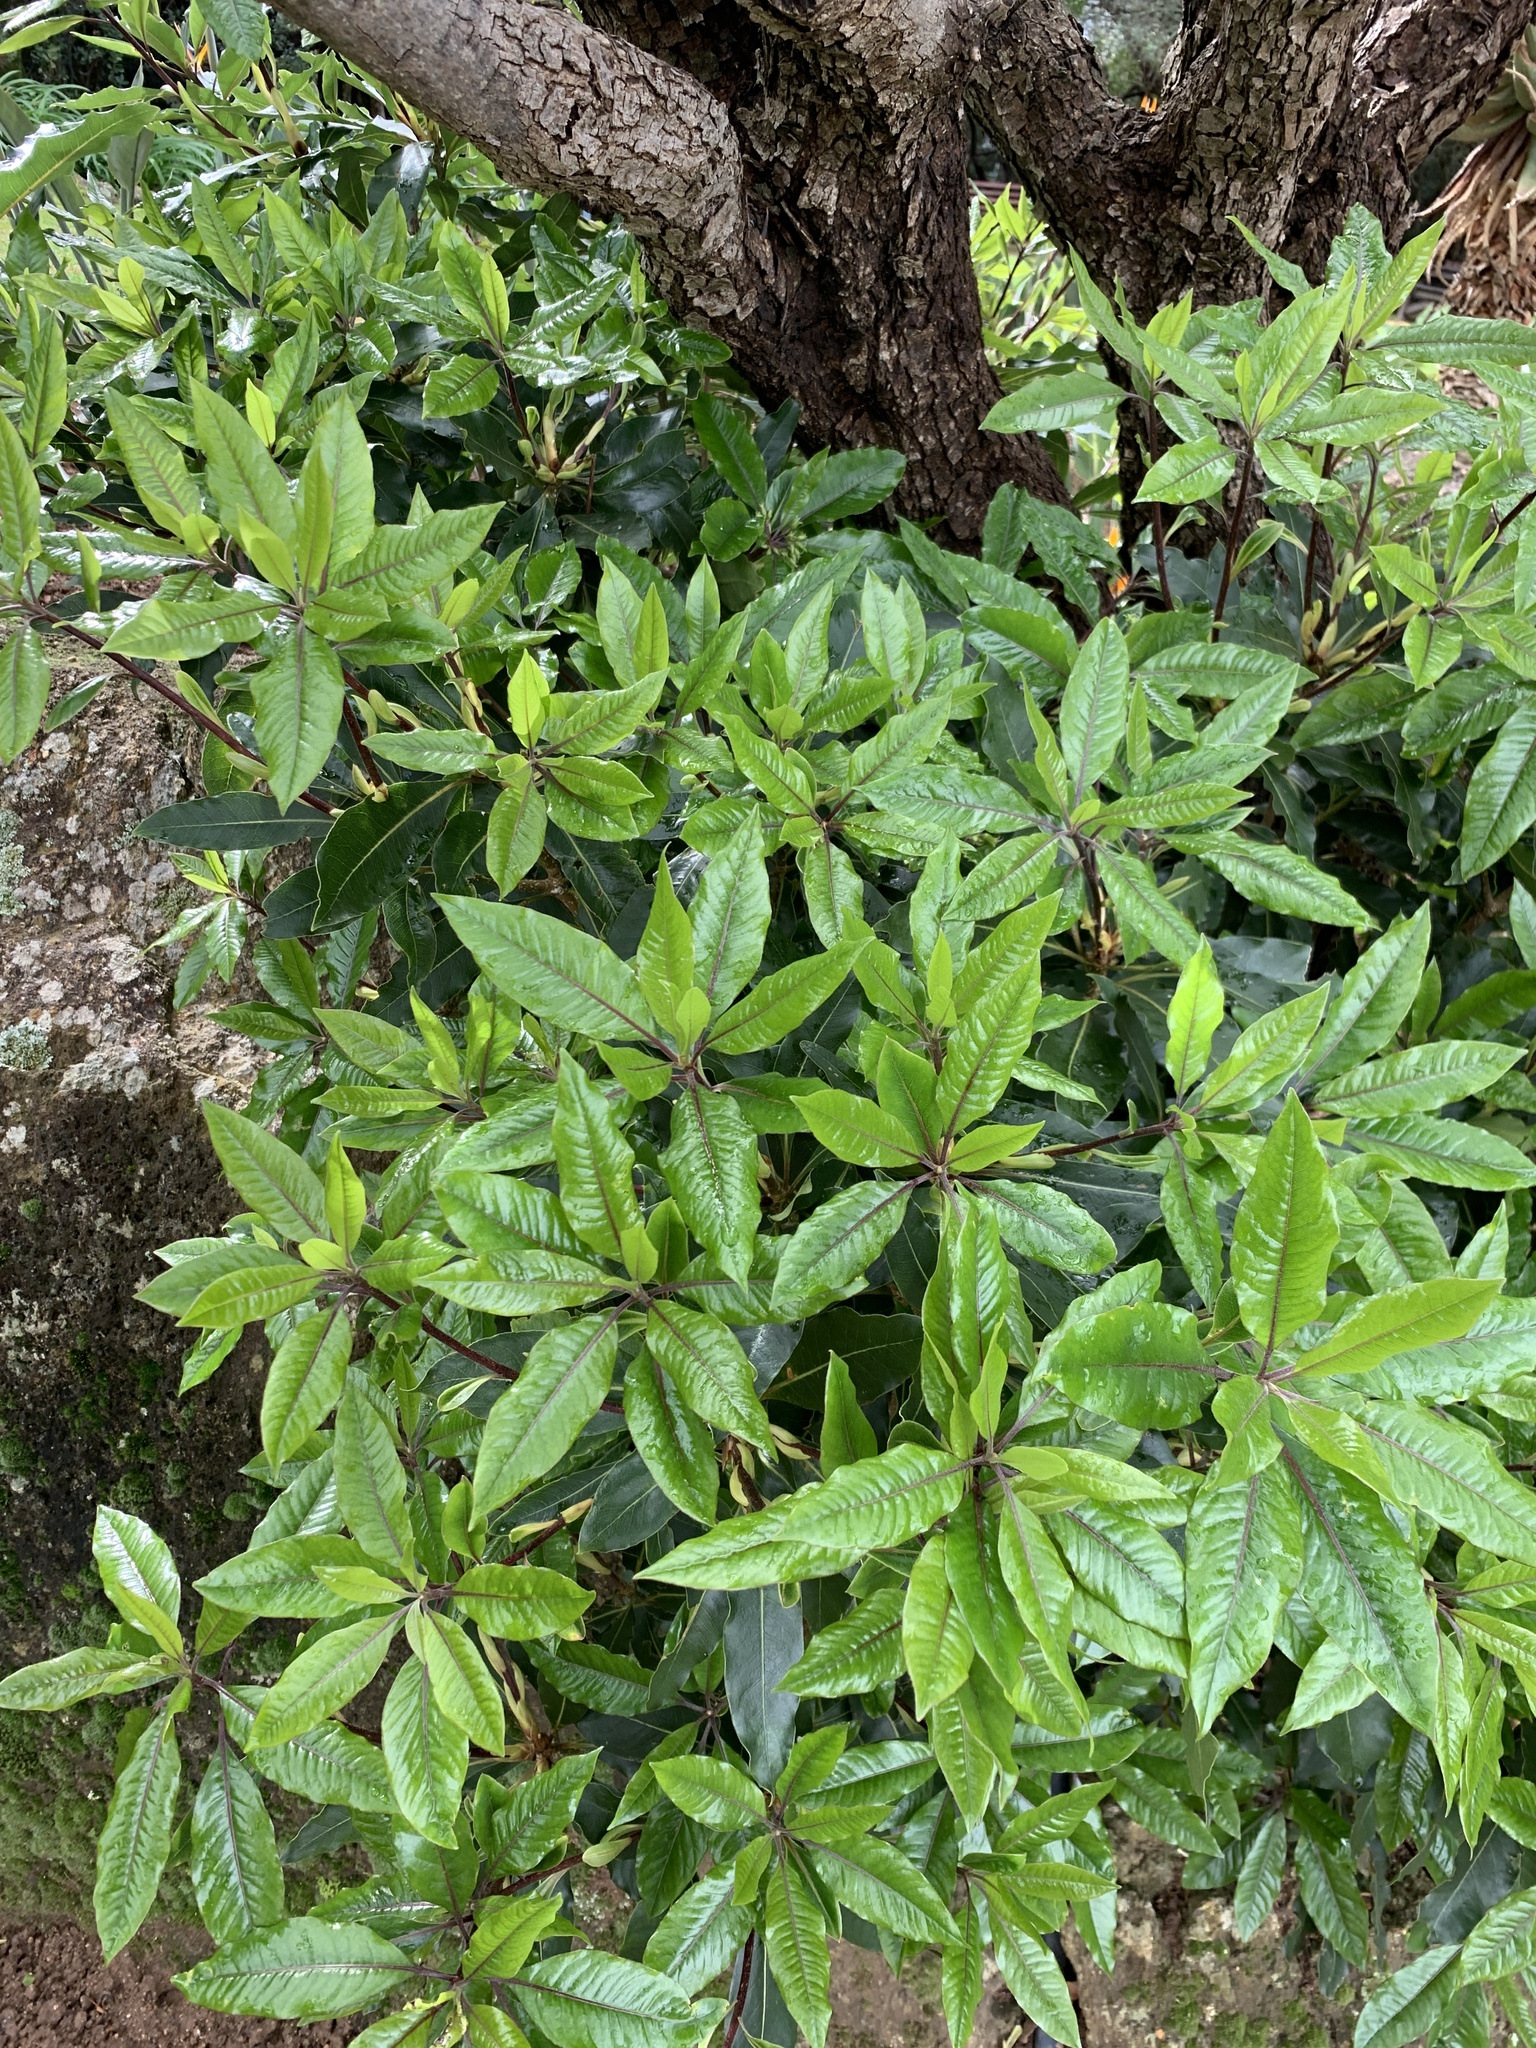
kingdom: Plantae
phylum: Tracheophyta
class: Magnoliopsida
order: Apiales
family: Pittosporaceae
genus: Pittosporum
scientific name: Pittosporum undulatum
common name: Australian cheesewood
